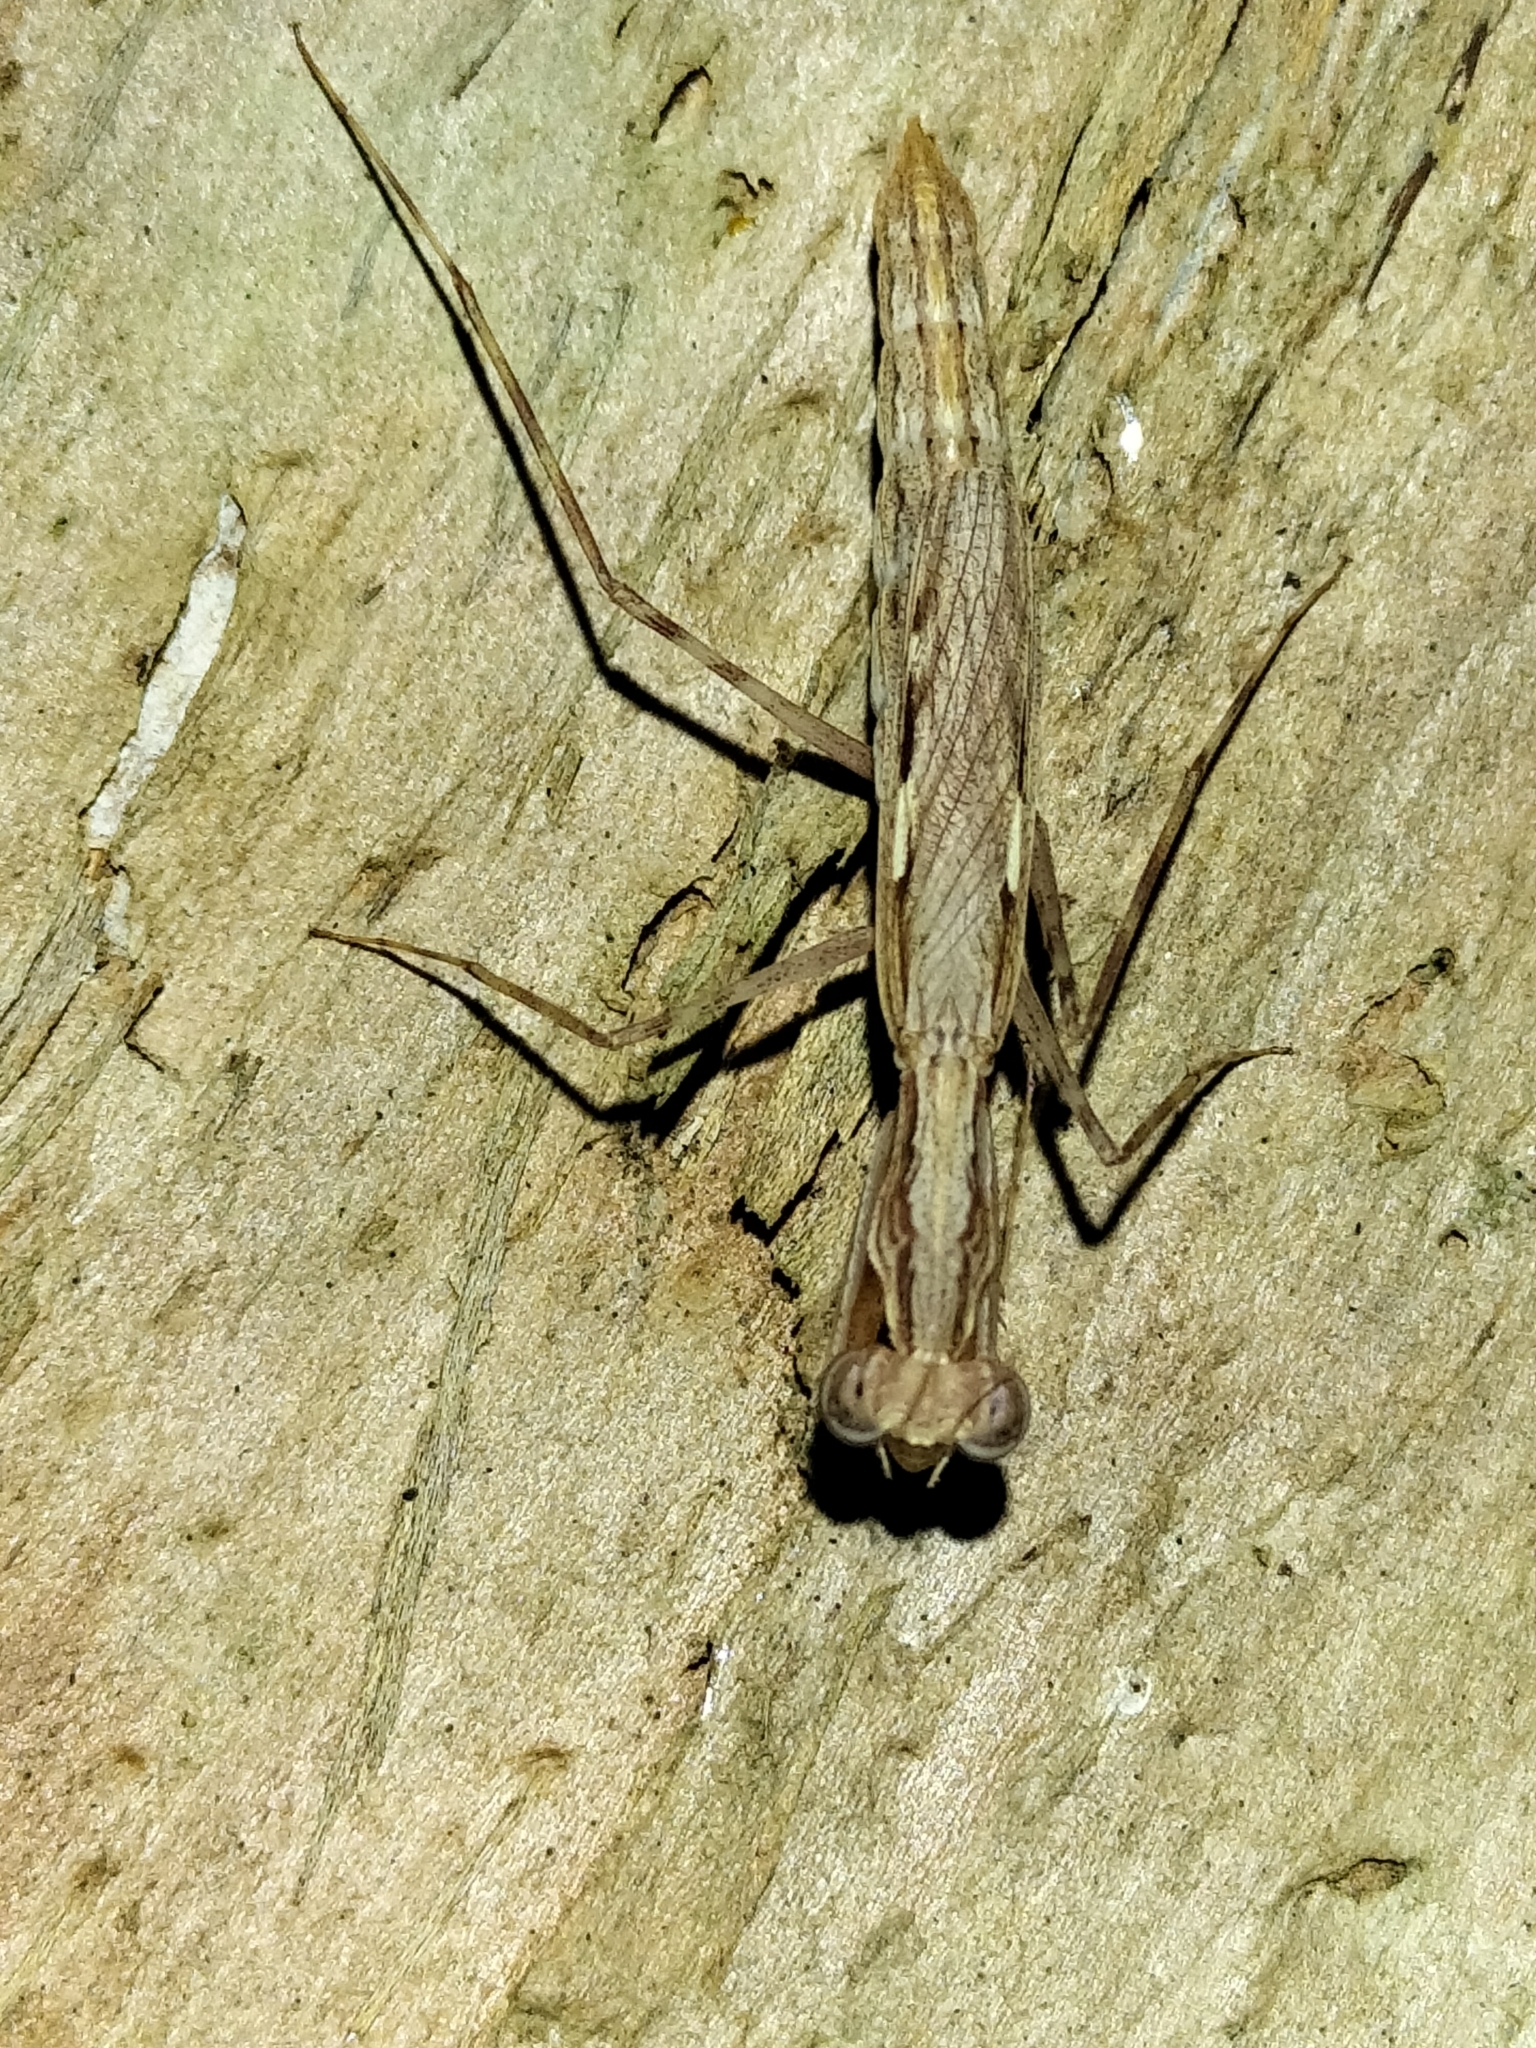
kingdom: Animalia
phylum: Arthropoda
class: Insecta
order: Mantodea
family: Nanomantidae
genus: Ima
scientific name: Ima fusca
